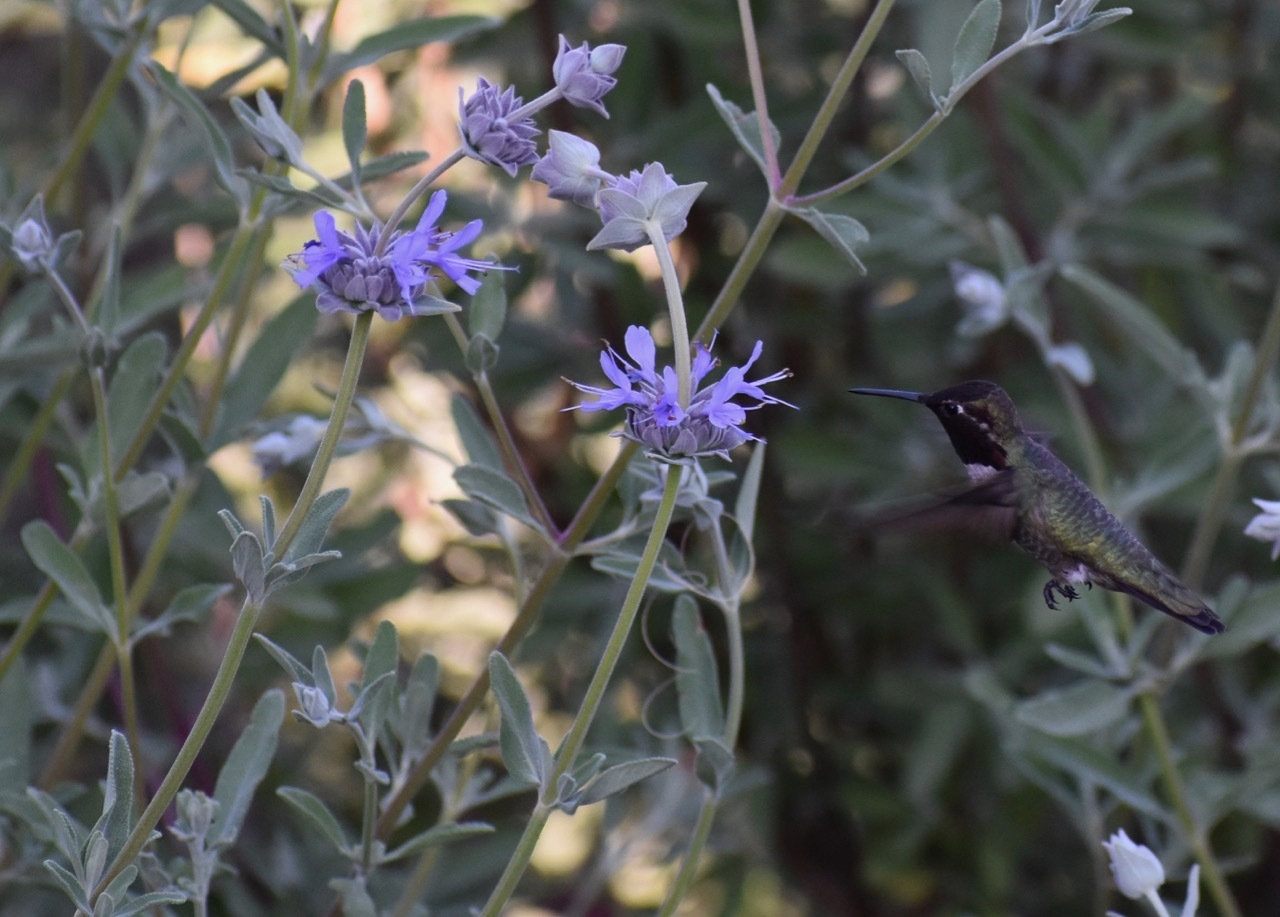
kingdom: Animalia
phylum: Chordata
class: Aves
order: Apodiformes
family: Trochilidae
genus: Calypte
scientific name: Calypte anna
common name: Anna's hummingbird
